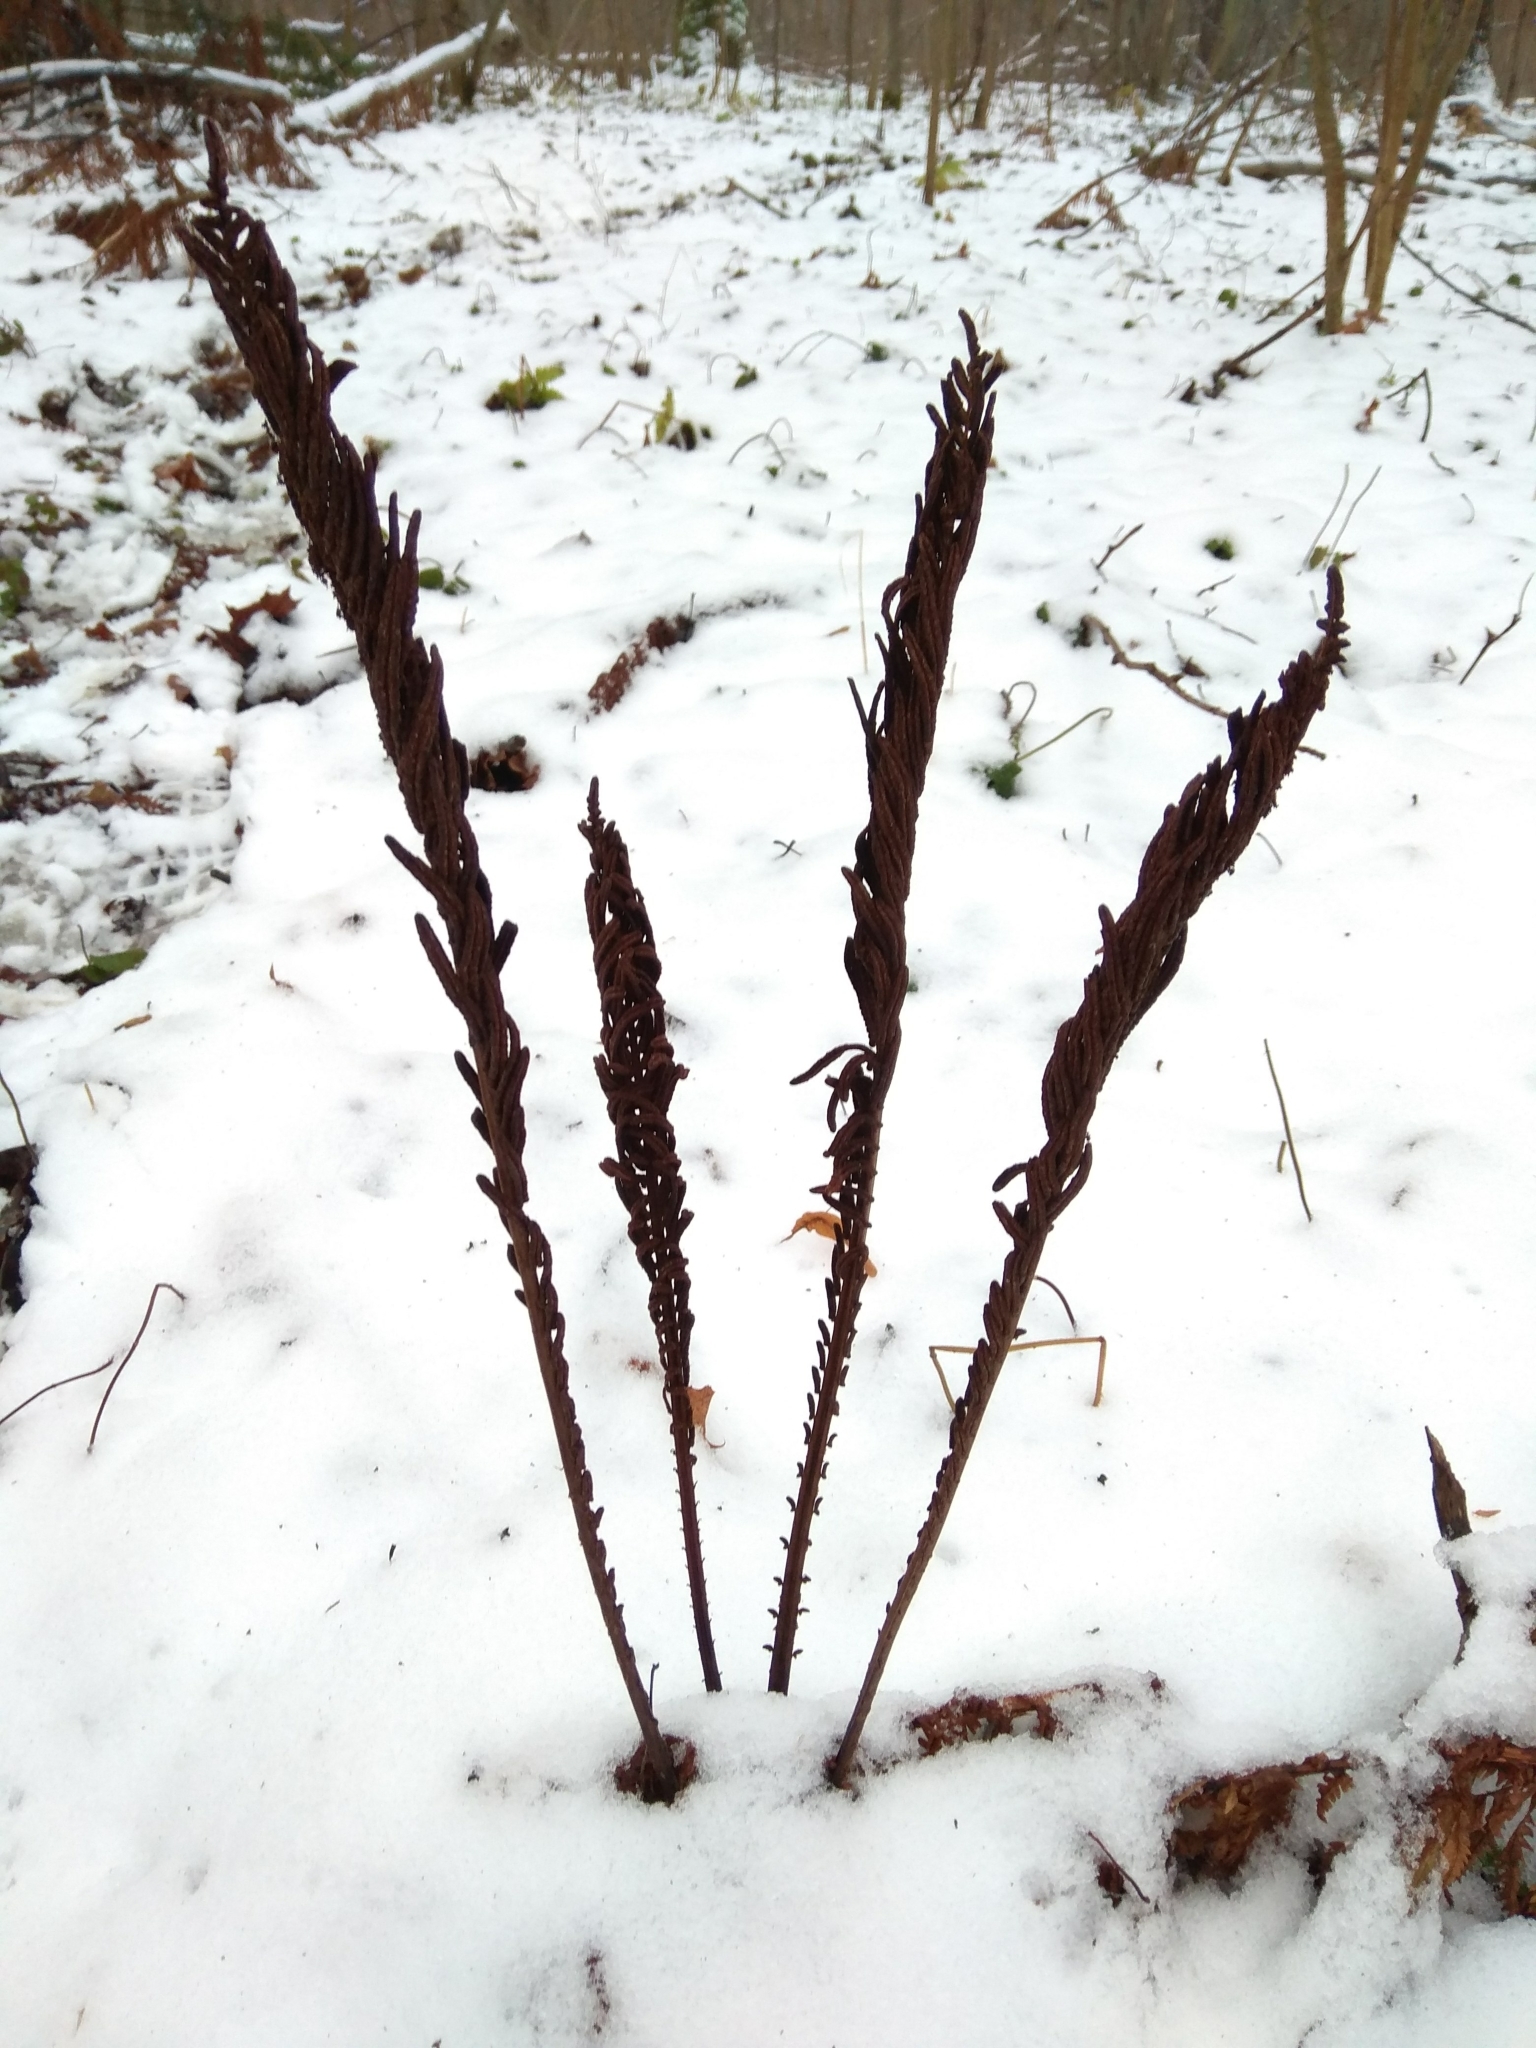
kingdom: Plantae
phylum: Tracheophyta
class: Polypodiopsida
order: Polypodiales
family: Onocleaceae
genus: Matteuccia
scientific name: Matteuccia struthiopteris
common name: Ostrich fern
